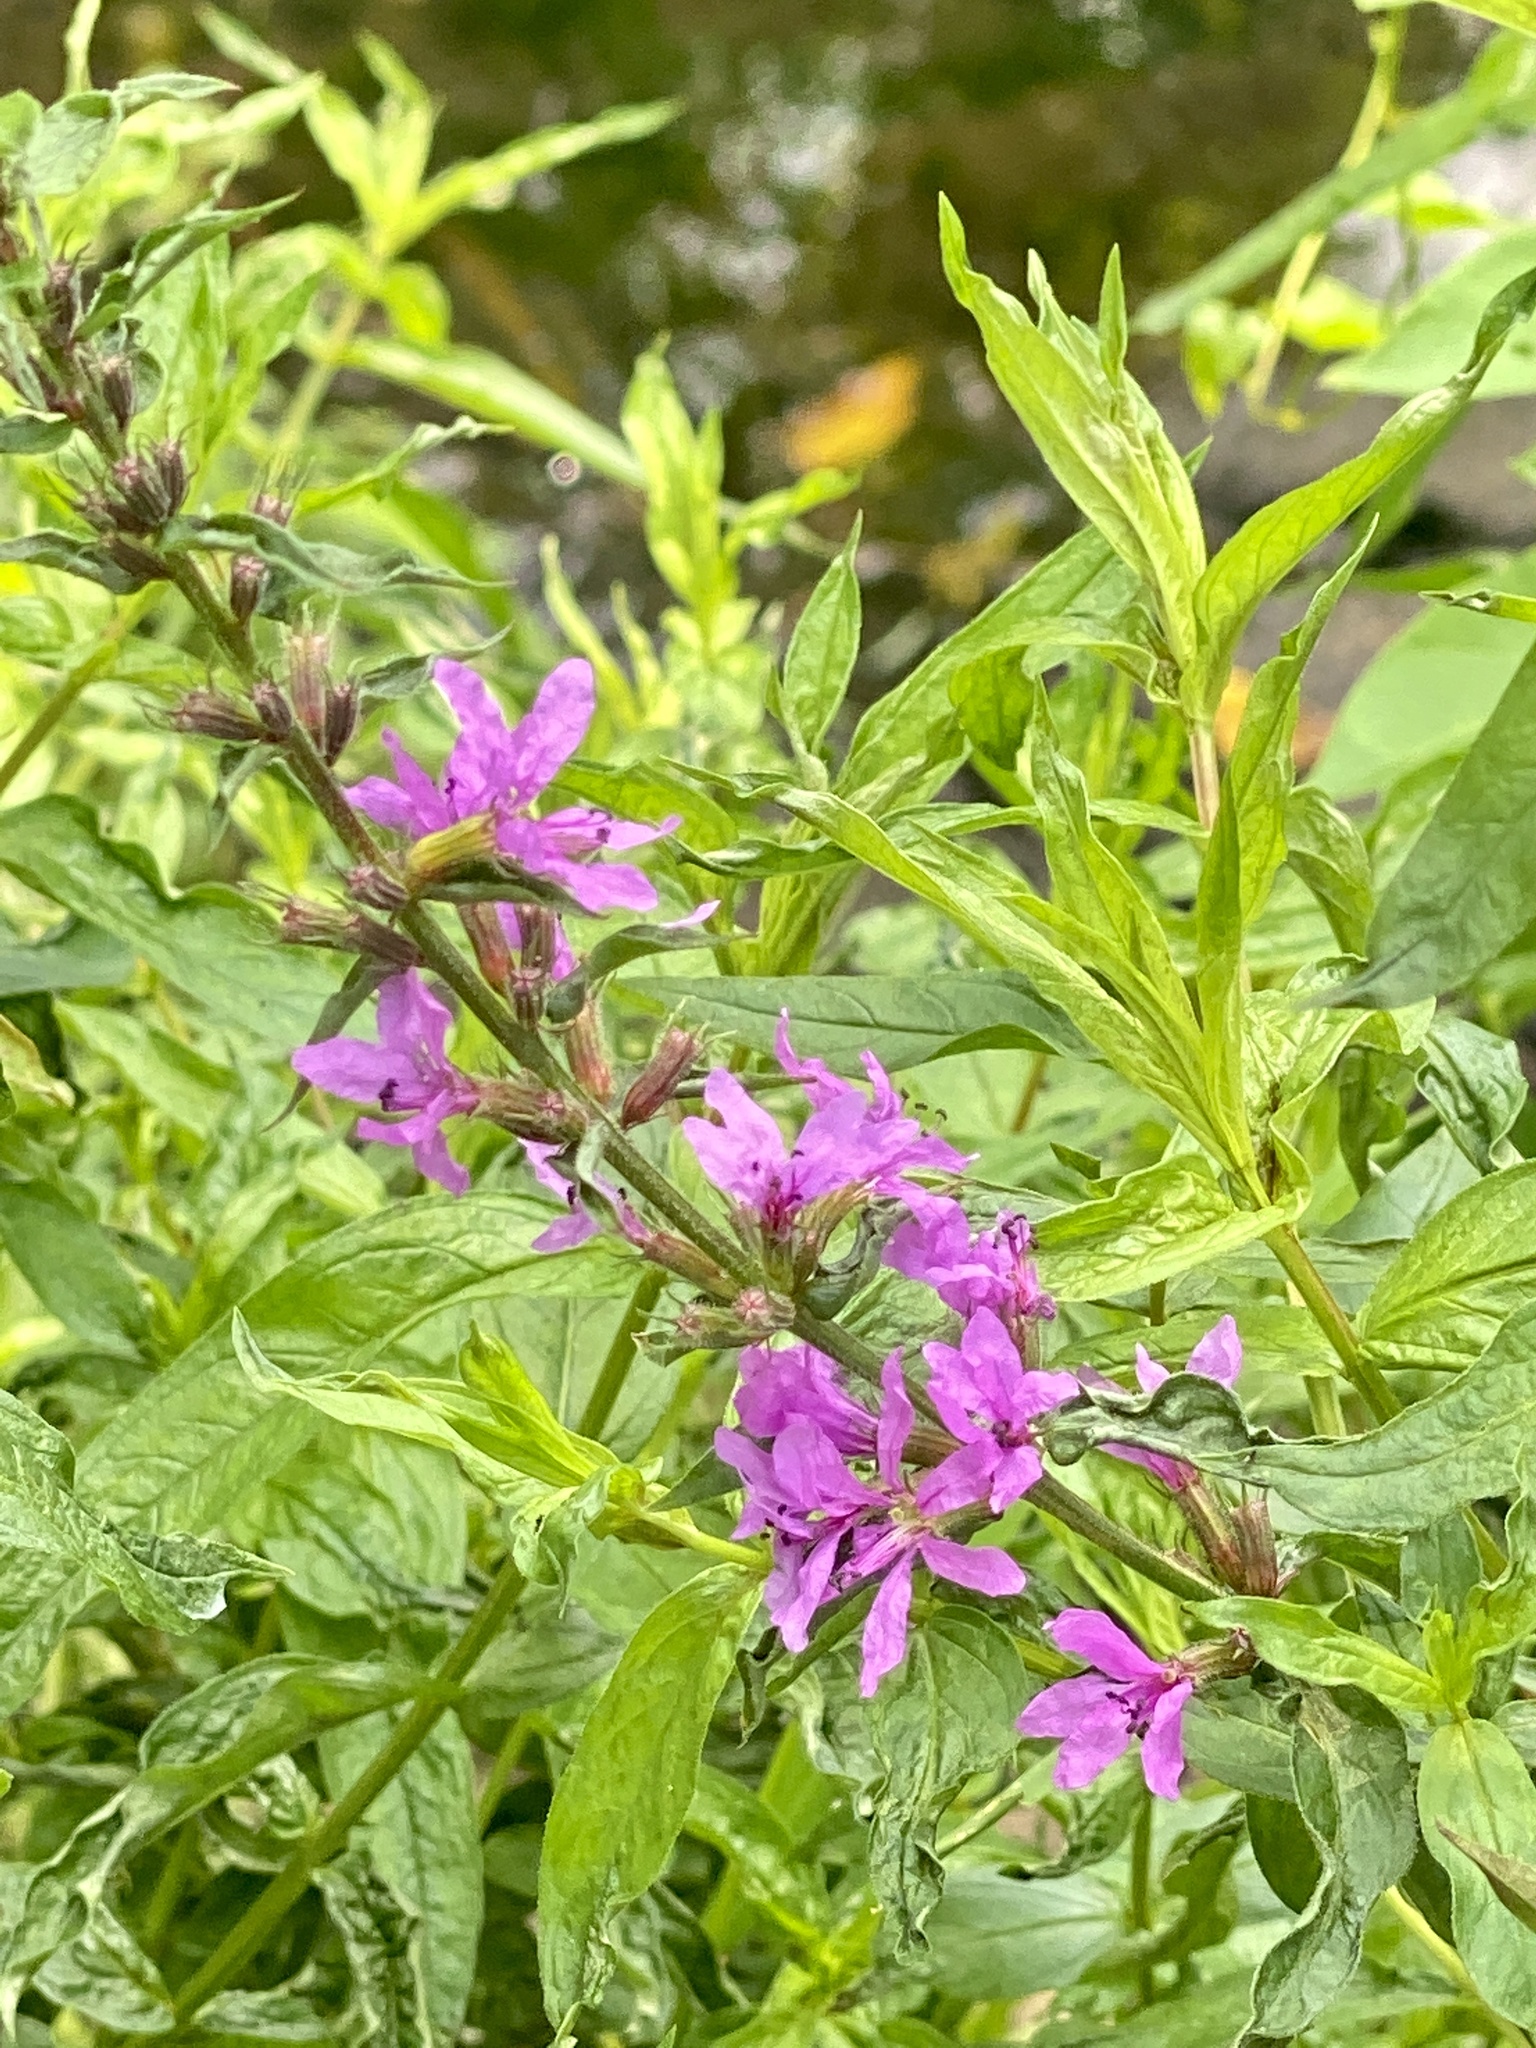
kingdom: Plantae
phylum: Tracheophyta
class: Magnoliopsida
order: Myrtales
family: Lythraceae
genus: Lythrum
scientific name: Lythrum salicaria
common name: Purple loosestrife
